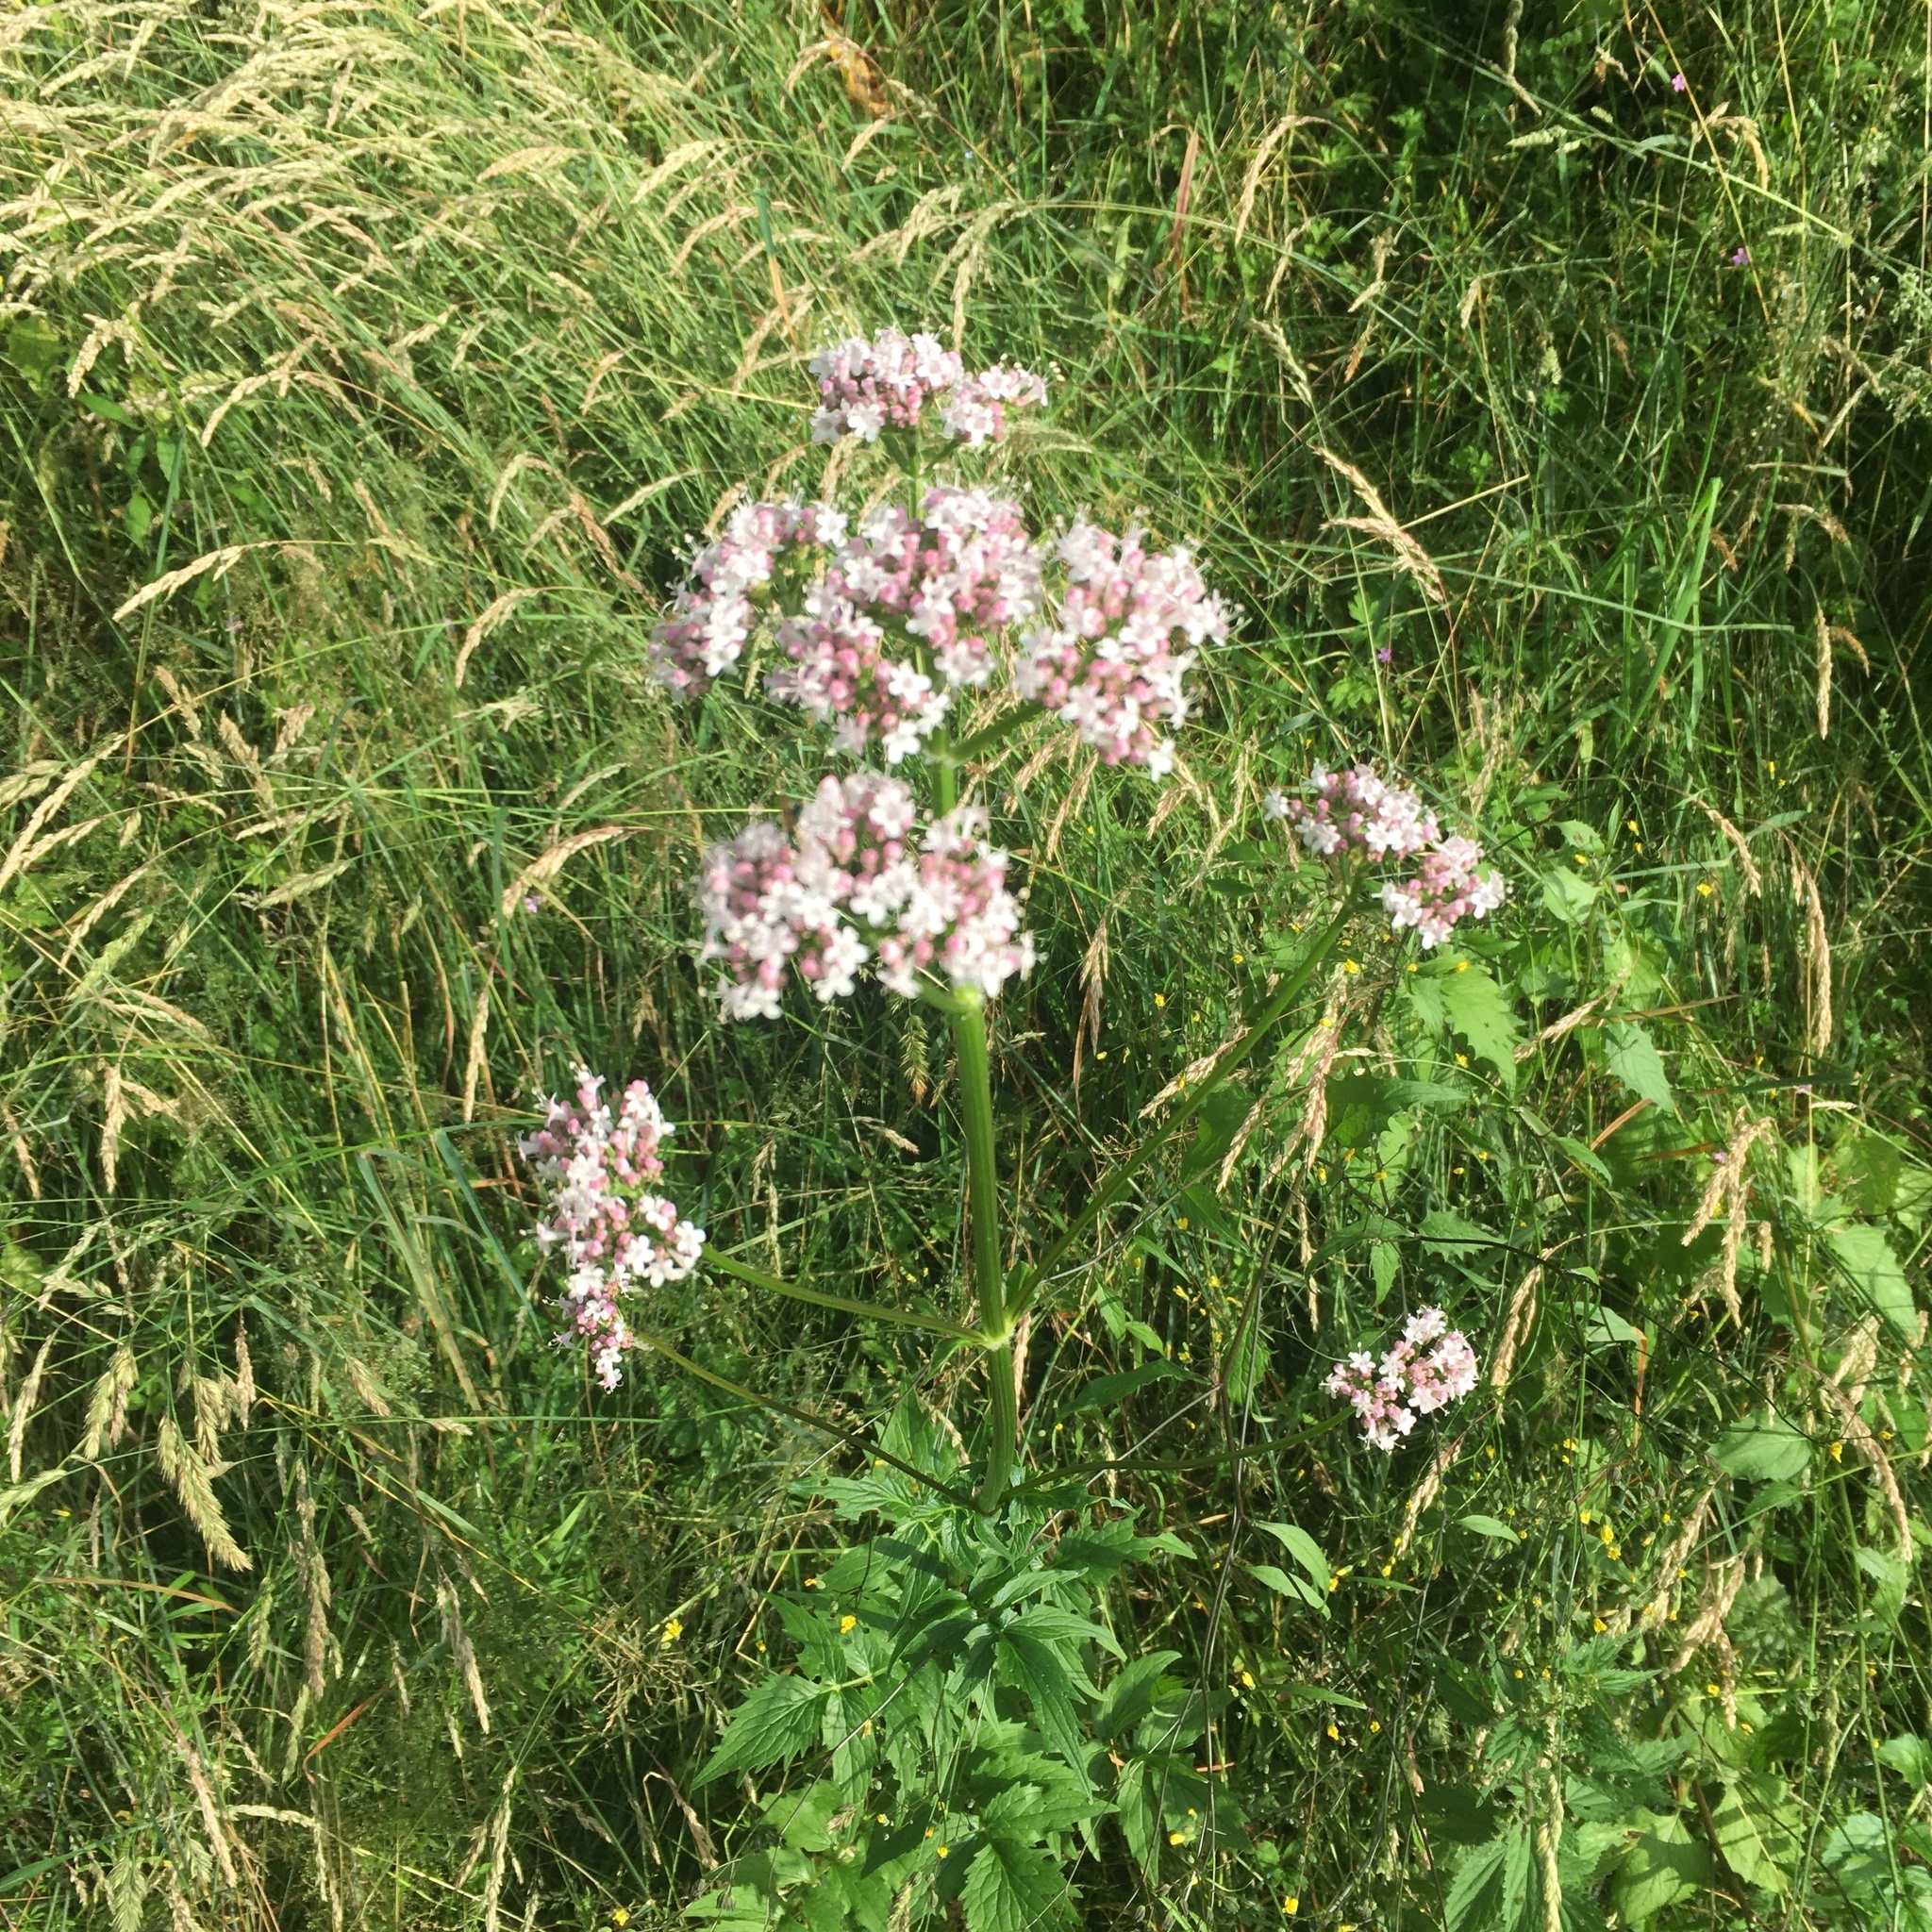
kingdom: Plantae
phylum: Tracheophyta
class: Magnoliopsida
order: Dipsacales
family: Caprifoliaceae
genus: Valeriana
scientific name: Valeriana officinalis
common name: Common valerian
